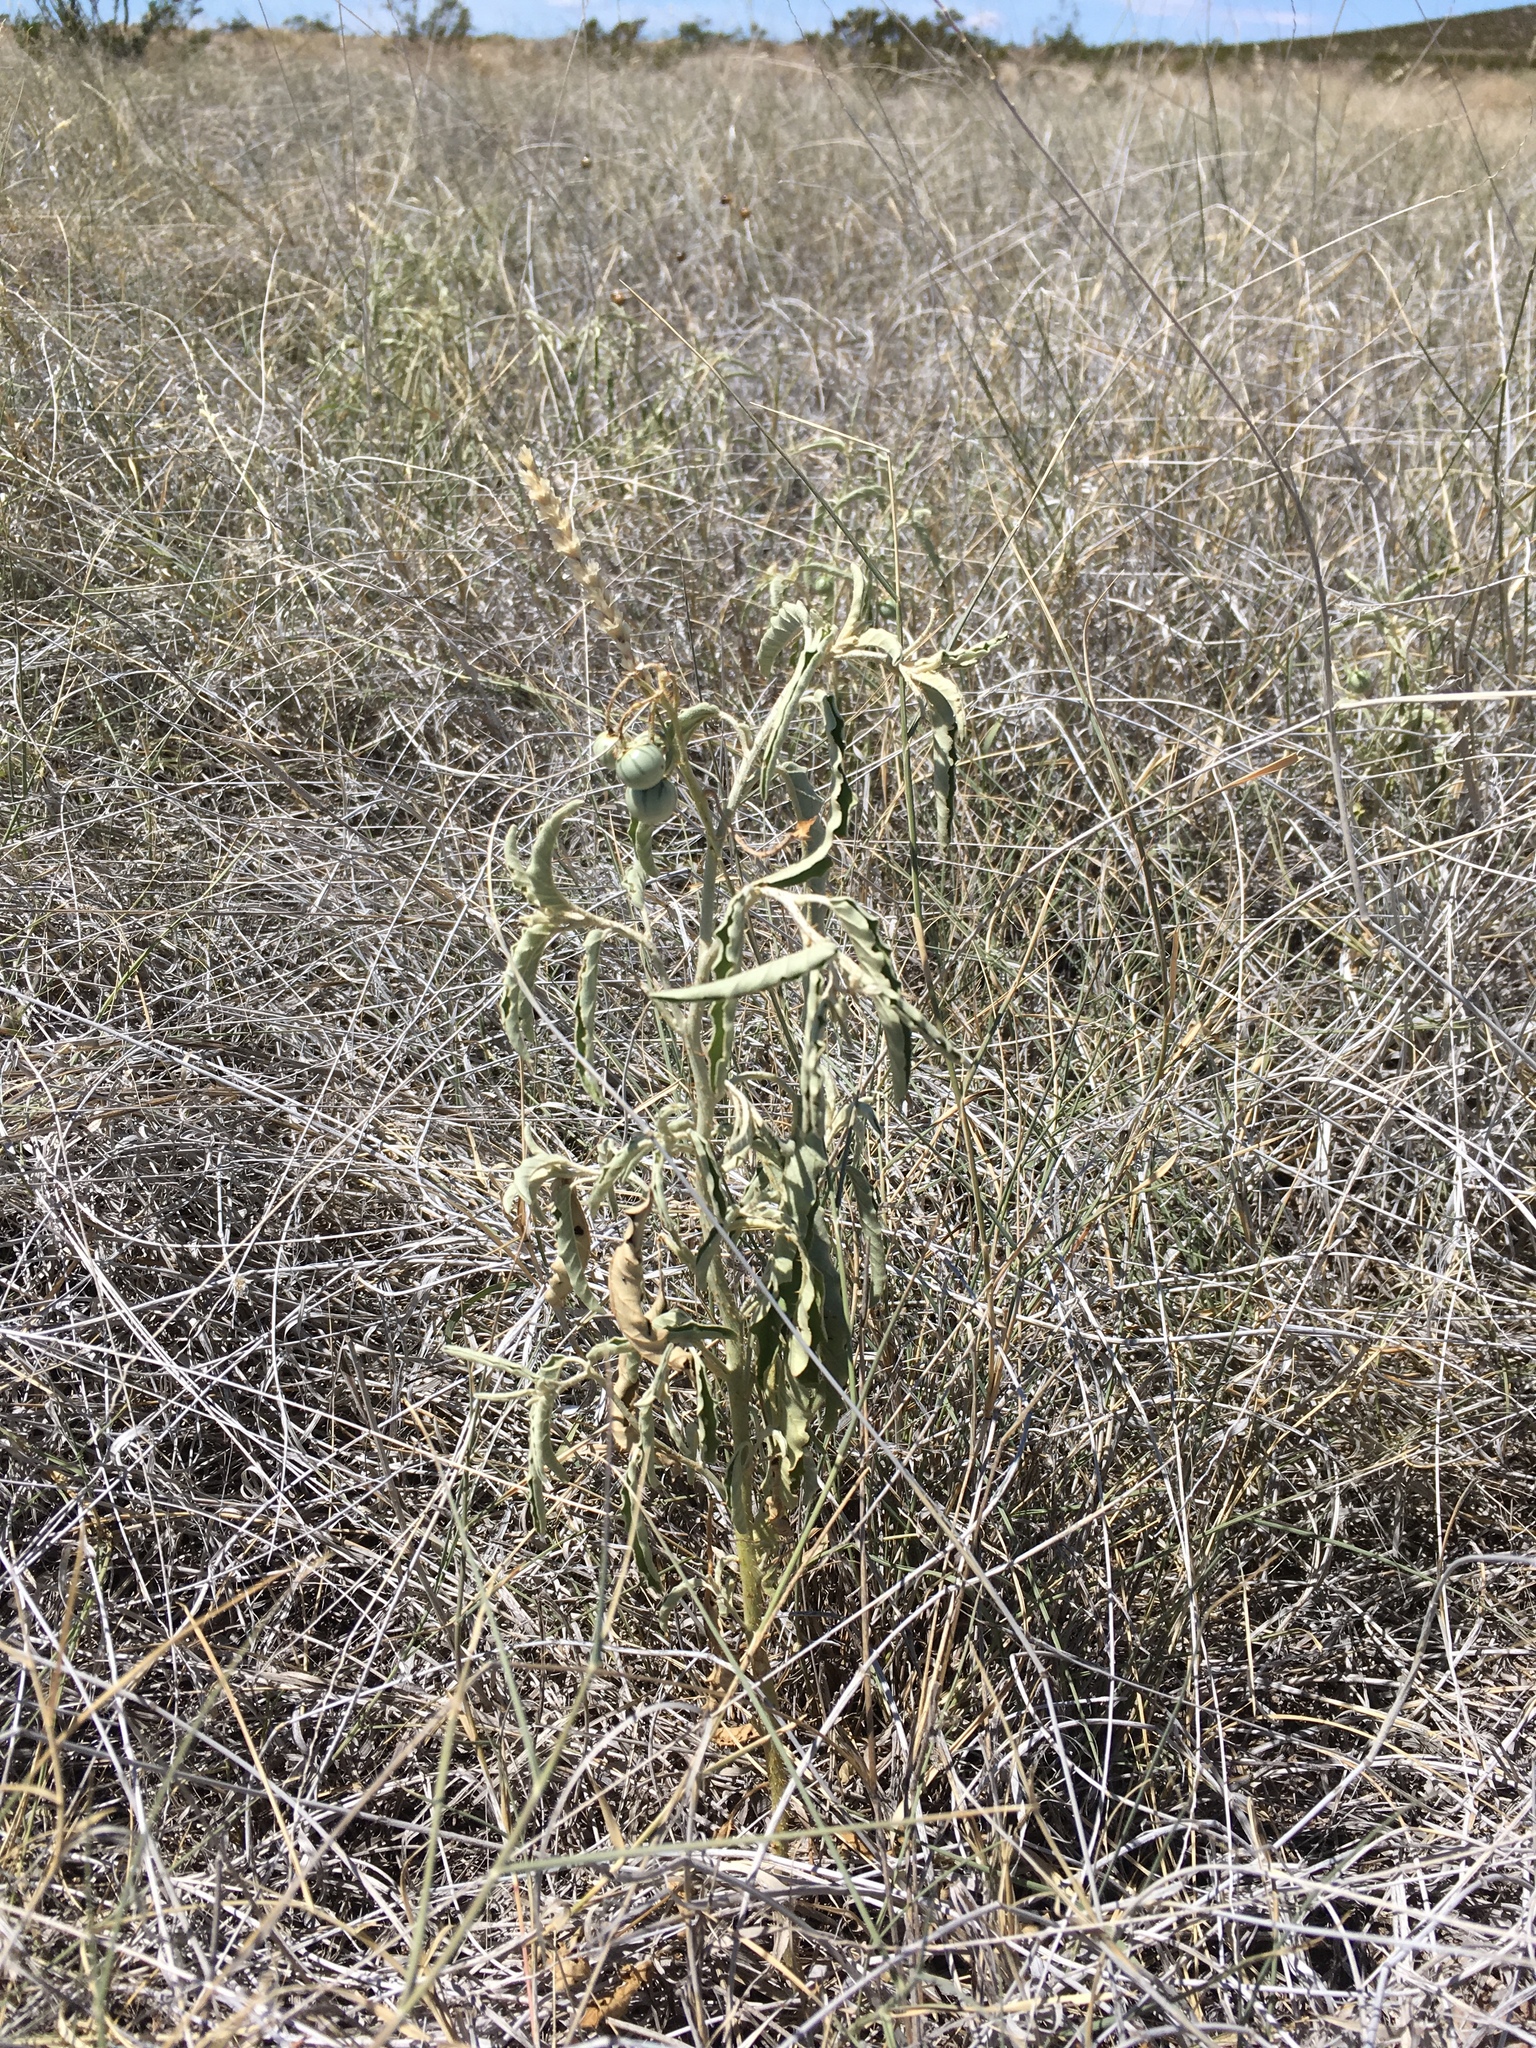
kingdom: Plantae
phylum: Tracheophyta
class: Magnoliopsida
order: Solanales
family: Solanaceae
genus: Solanum
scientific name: Solanum elaeagnifolium
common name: Silverleaf nightshade
